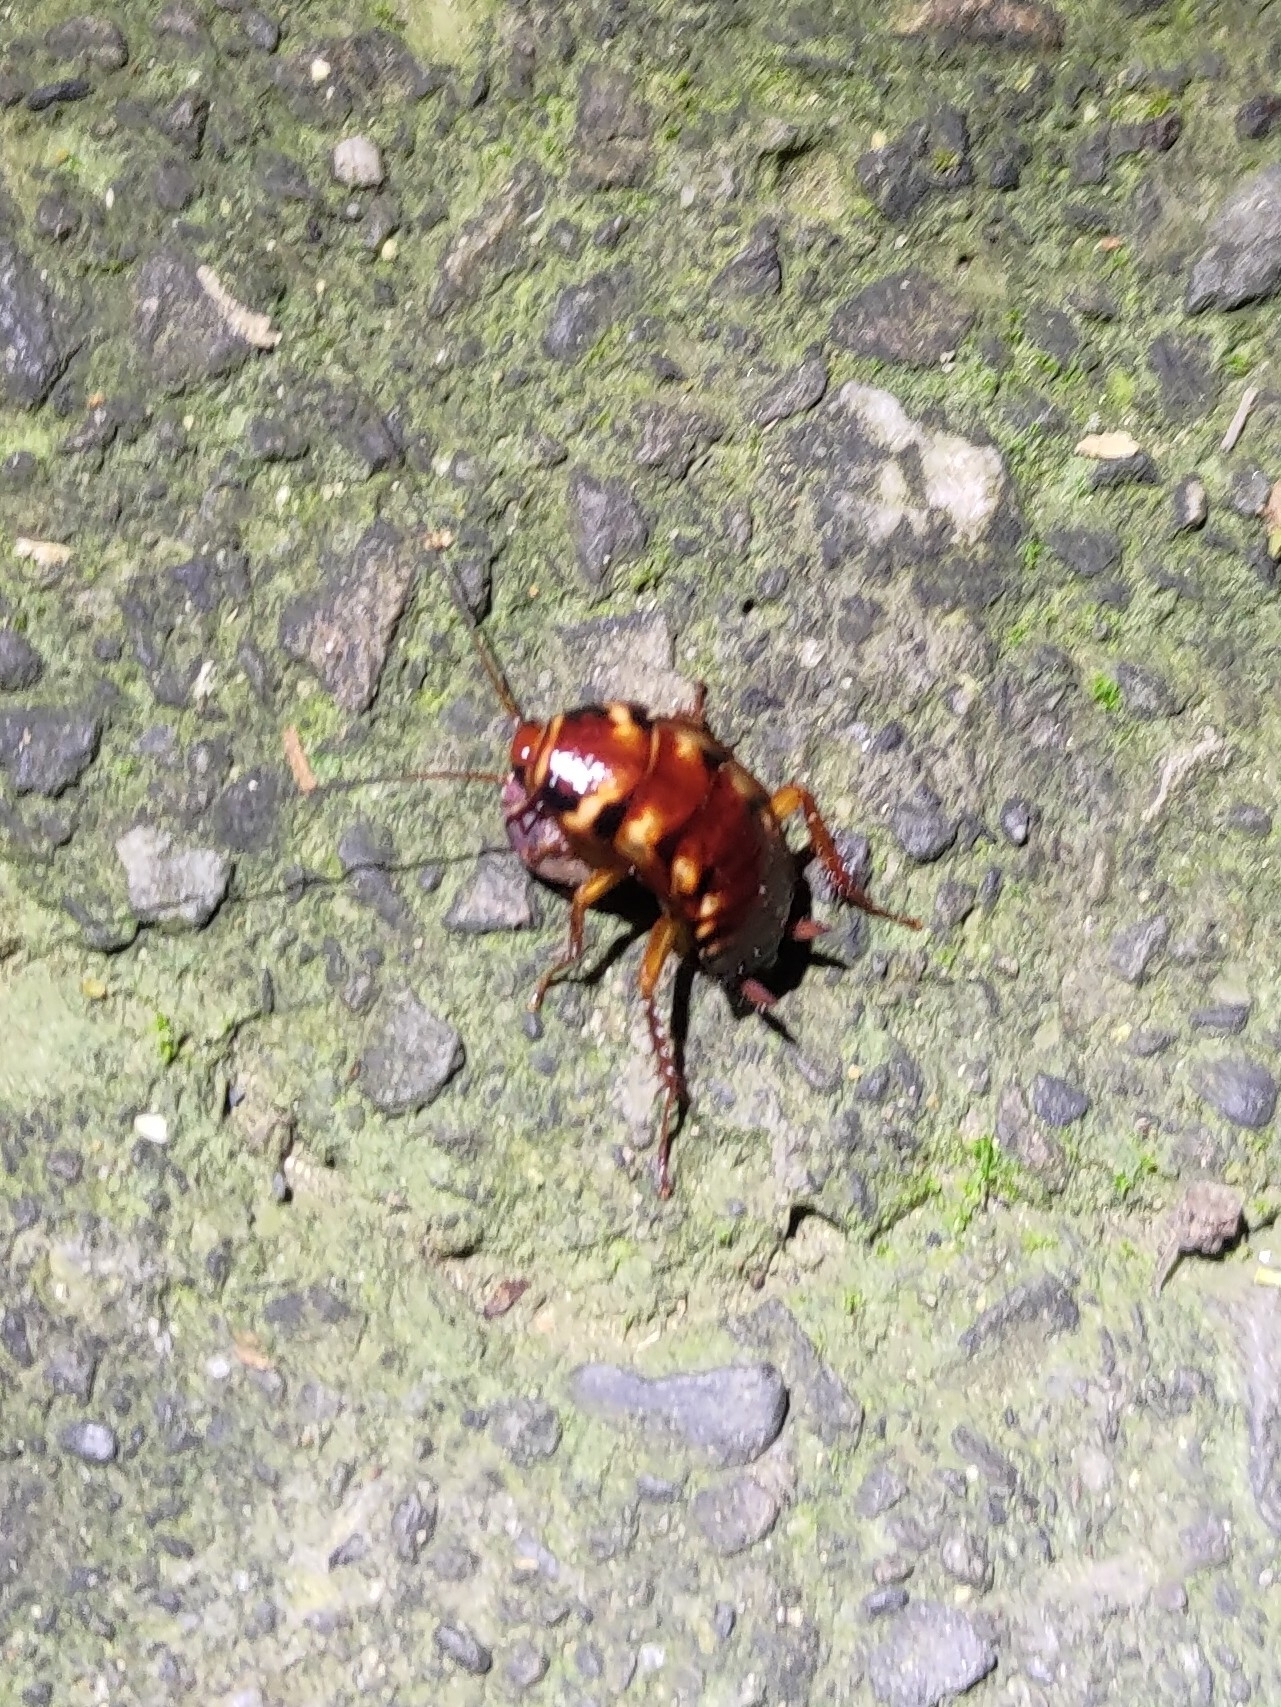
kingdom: Animalia
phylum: Arthropoda
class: Insecta
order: Blattodea
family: Blattidae
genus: Periplaneta
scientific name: Periplaneta australasiae
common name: Australian cockroach
